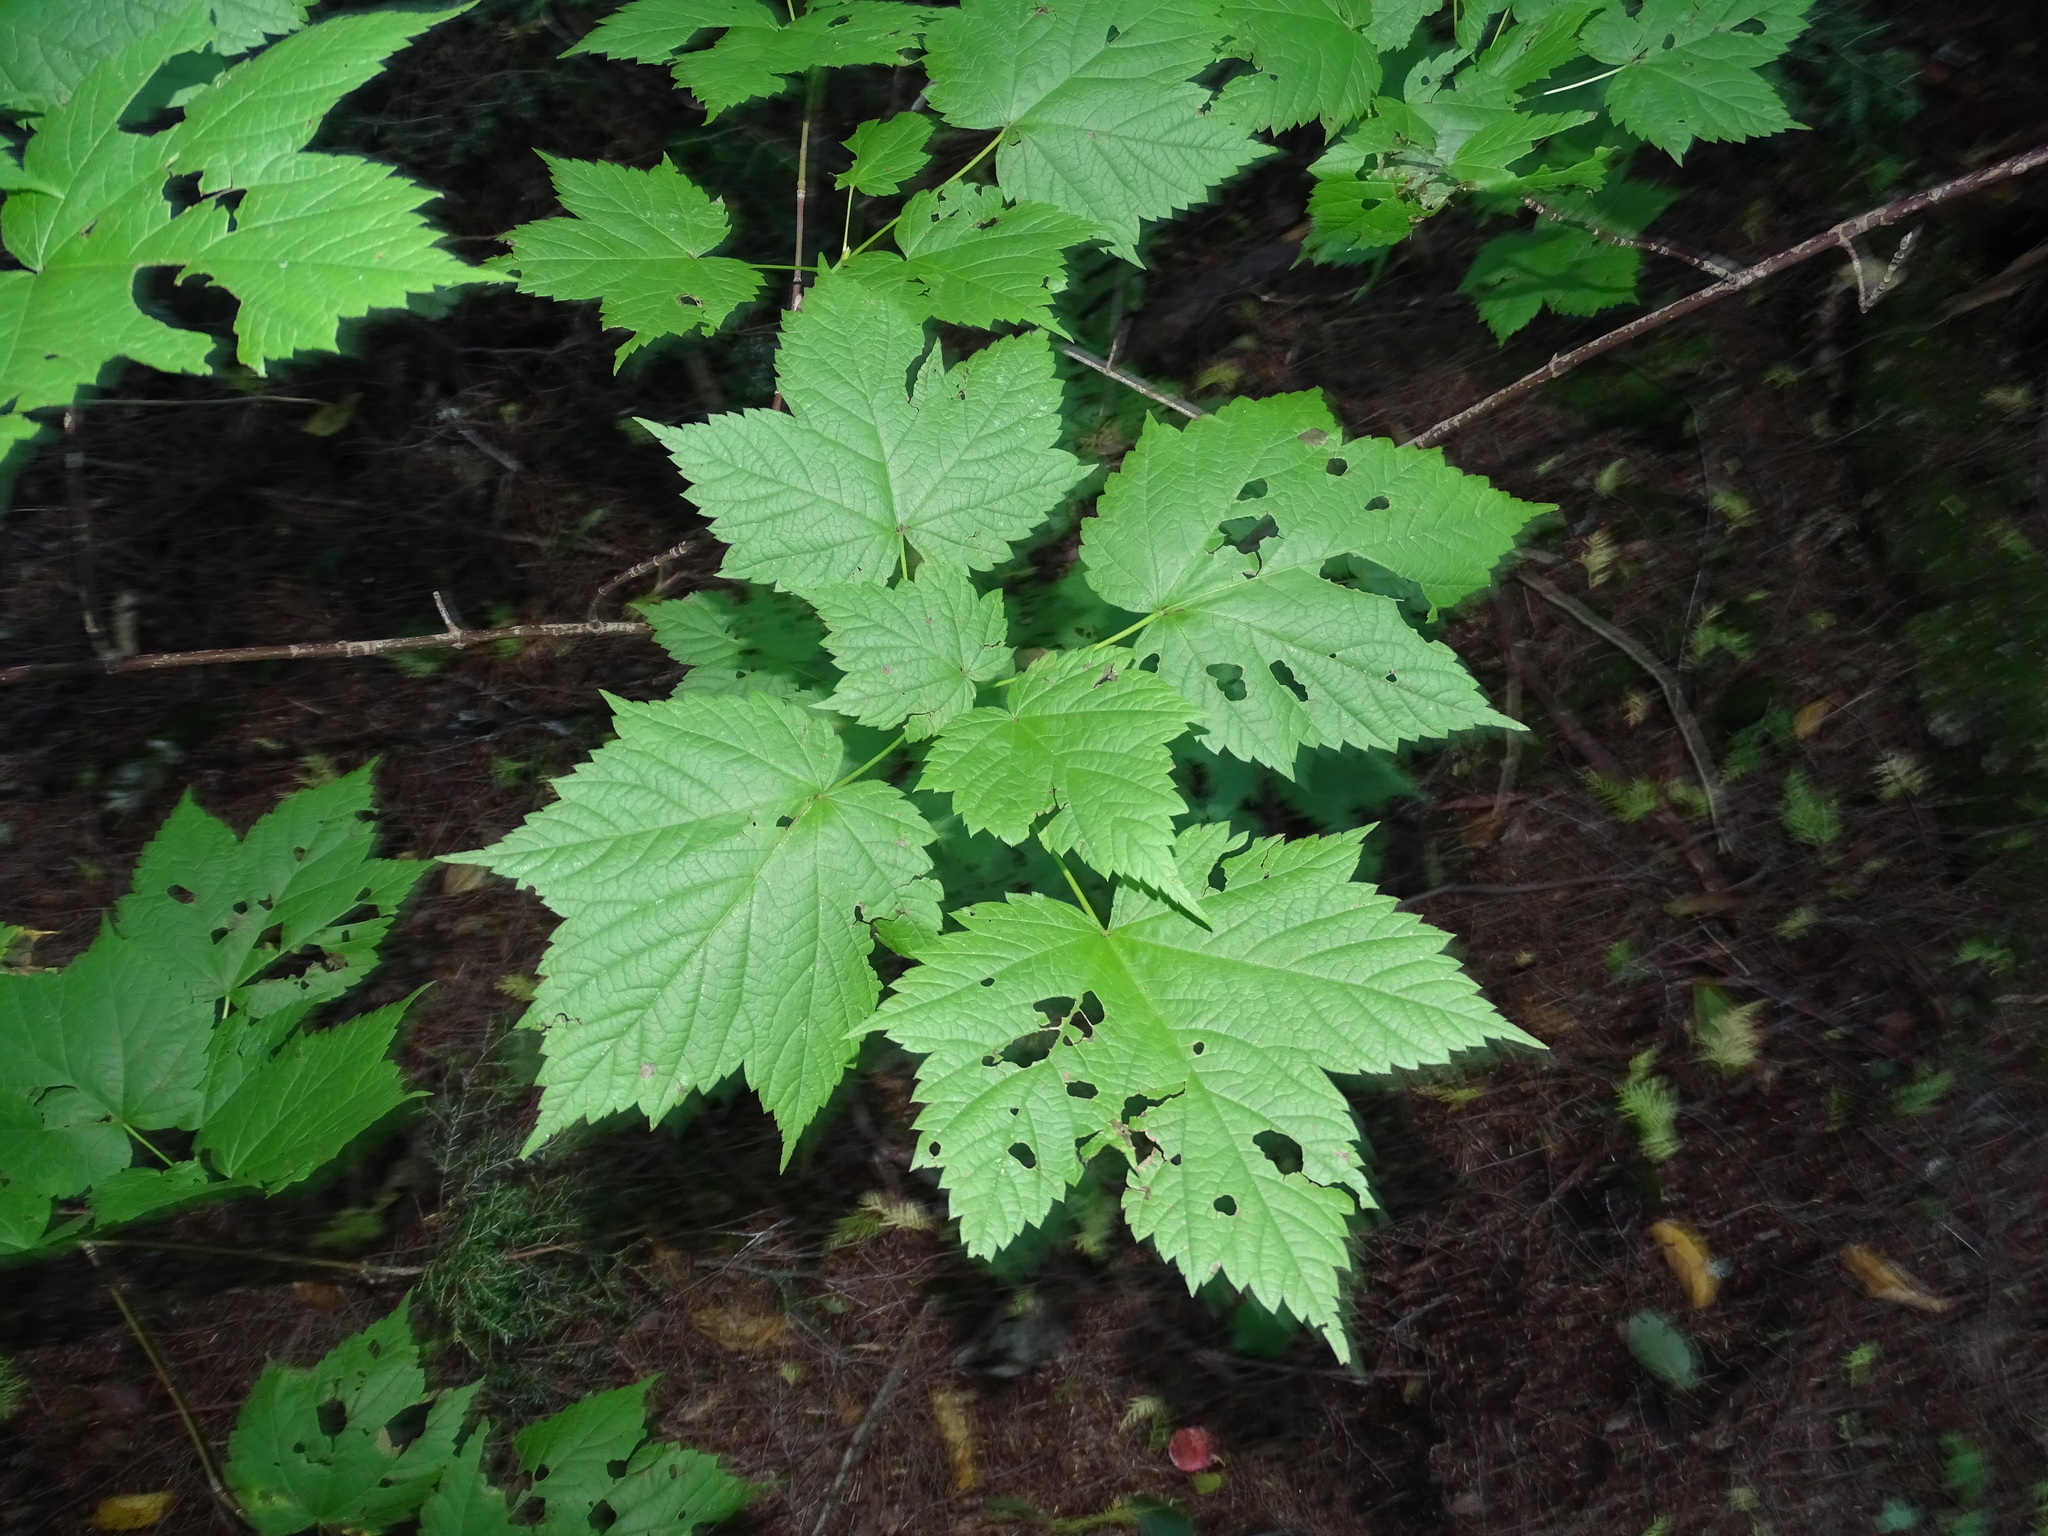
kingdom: Plantae
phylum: Tracheophyta
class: Magnoliopsida
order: Sapindales
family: Sapindaceae
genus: Acer
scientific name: Acer spicatum
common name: Mountain maple
